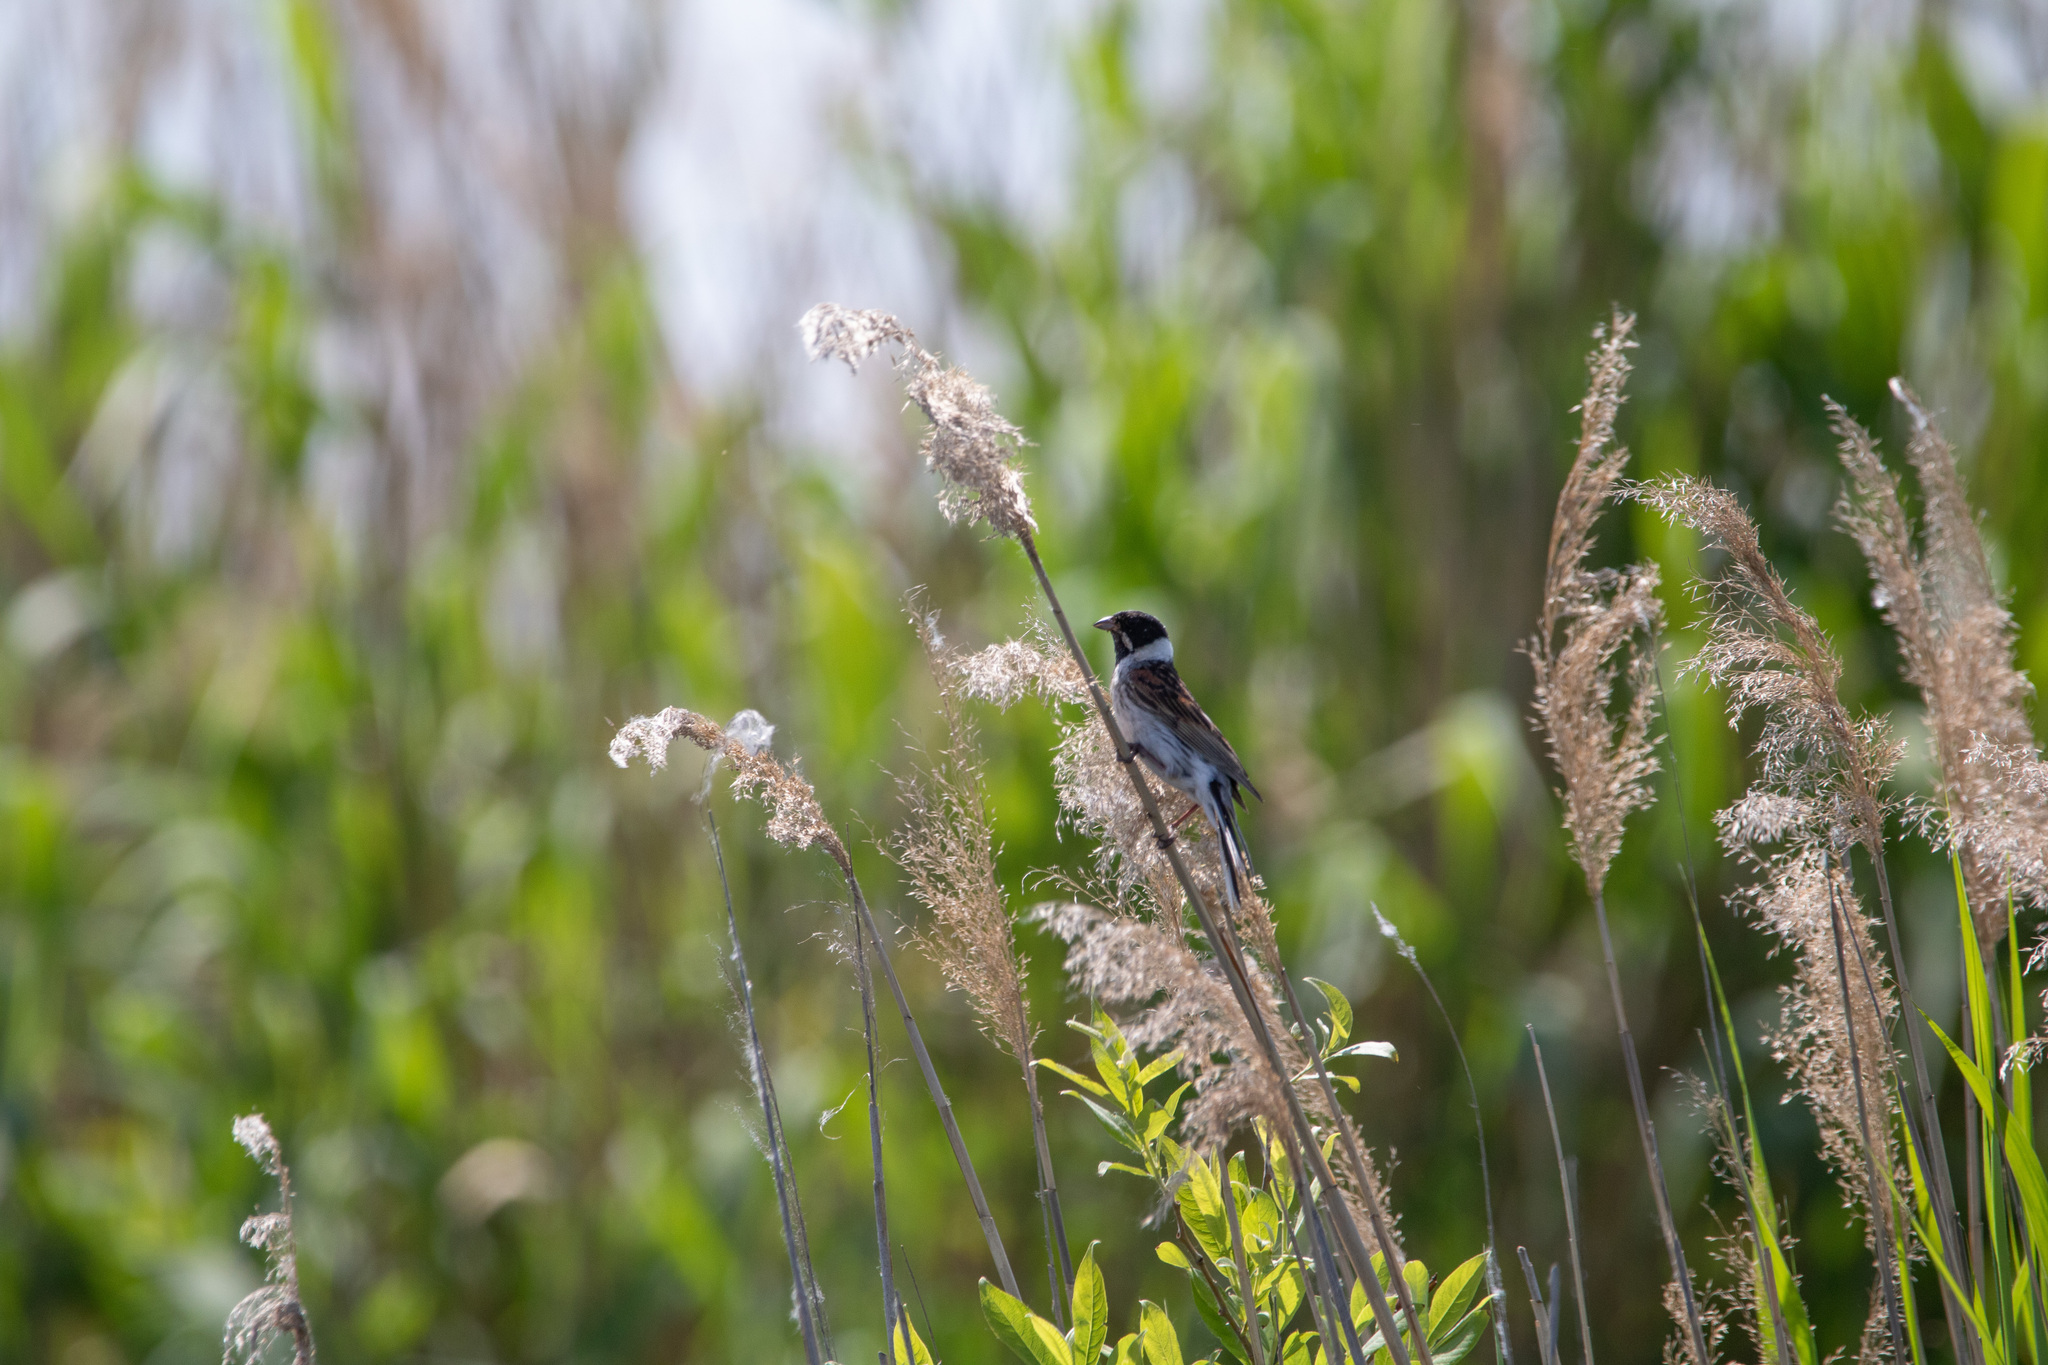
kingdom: Animalia
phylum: Chordata
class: Aves
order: Passeriformes
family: Emberizidae
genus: Emberiza
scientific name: Emberiza schoeniclus
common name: Reed bunting
